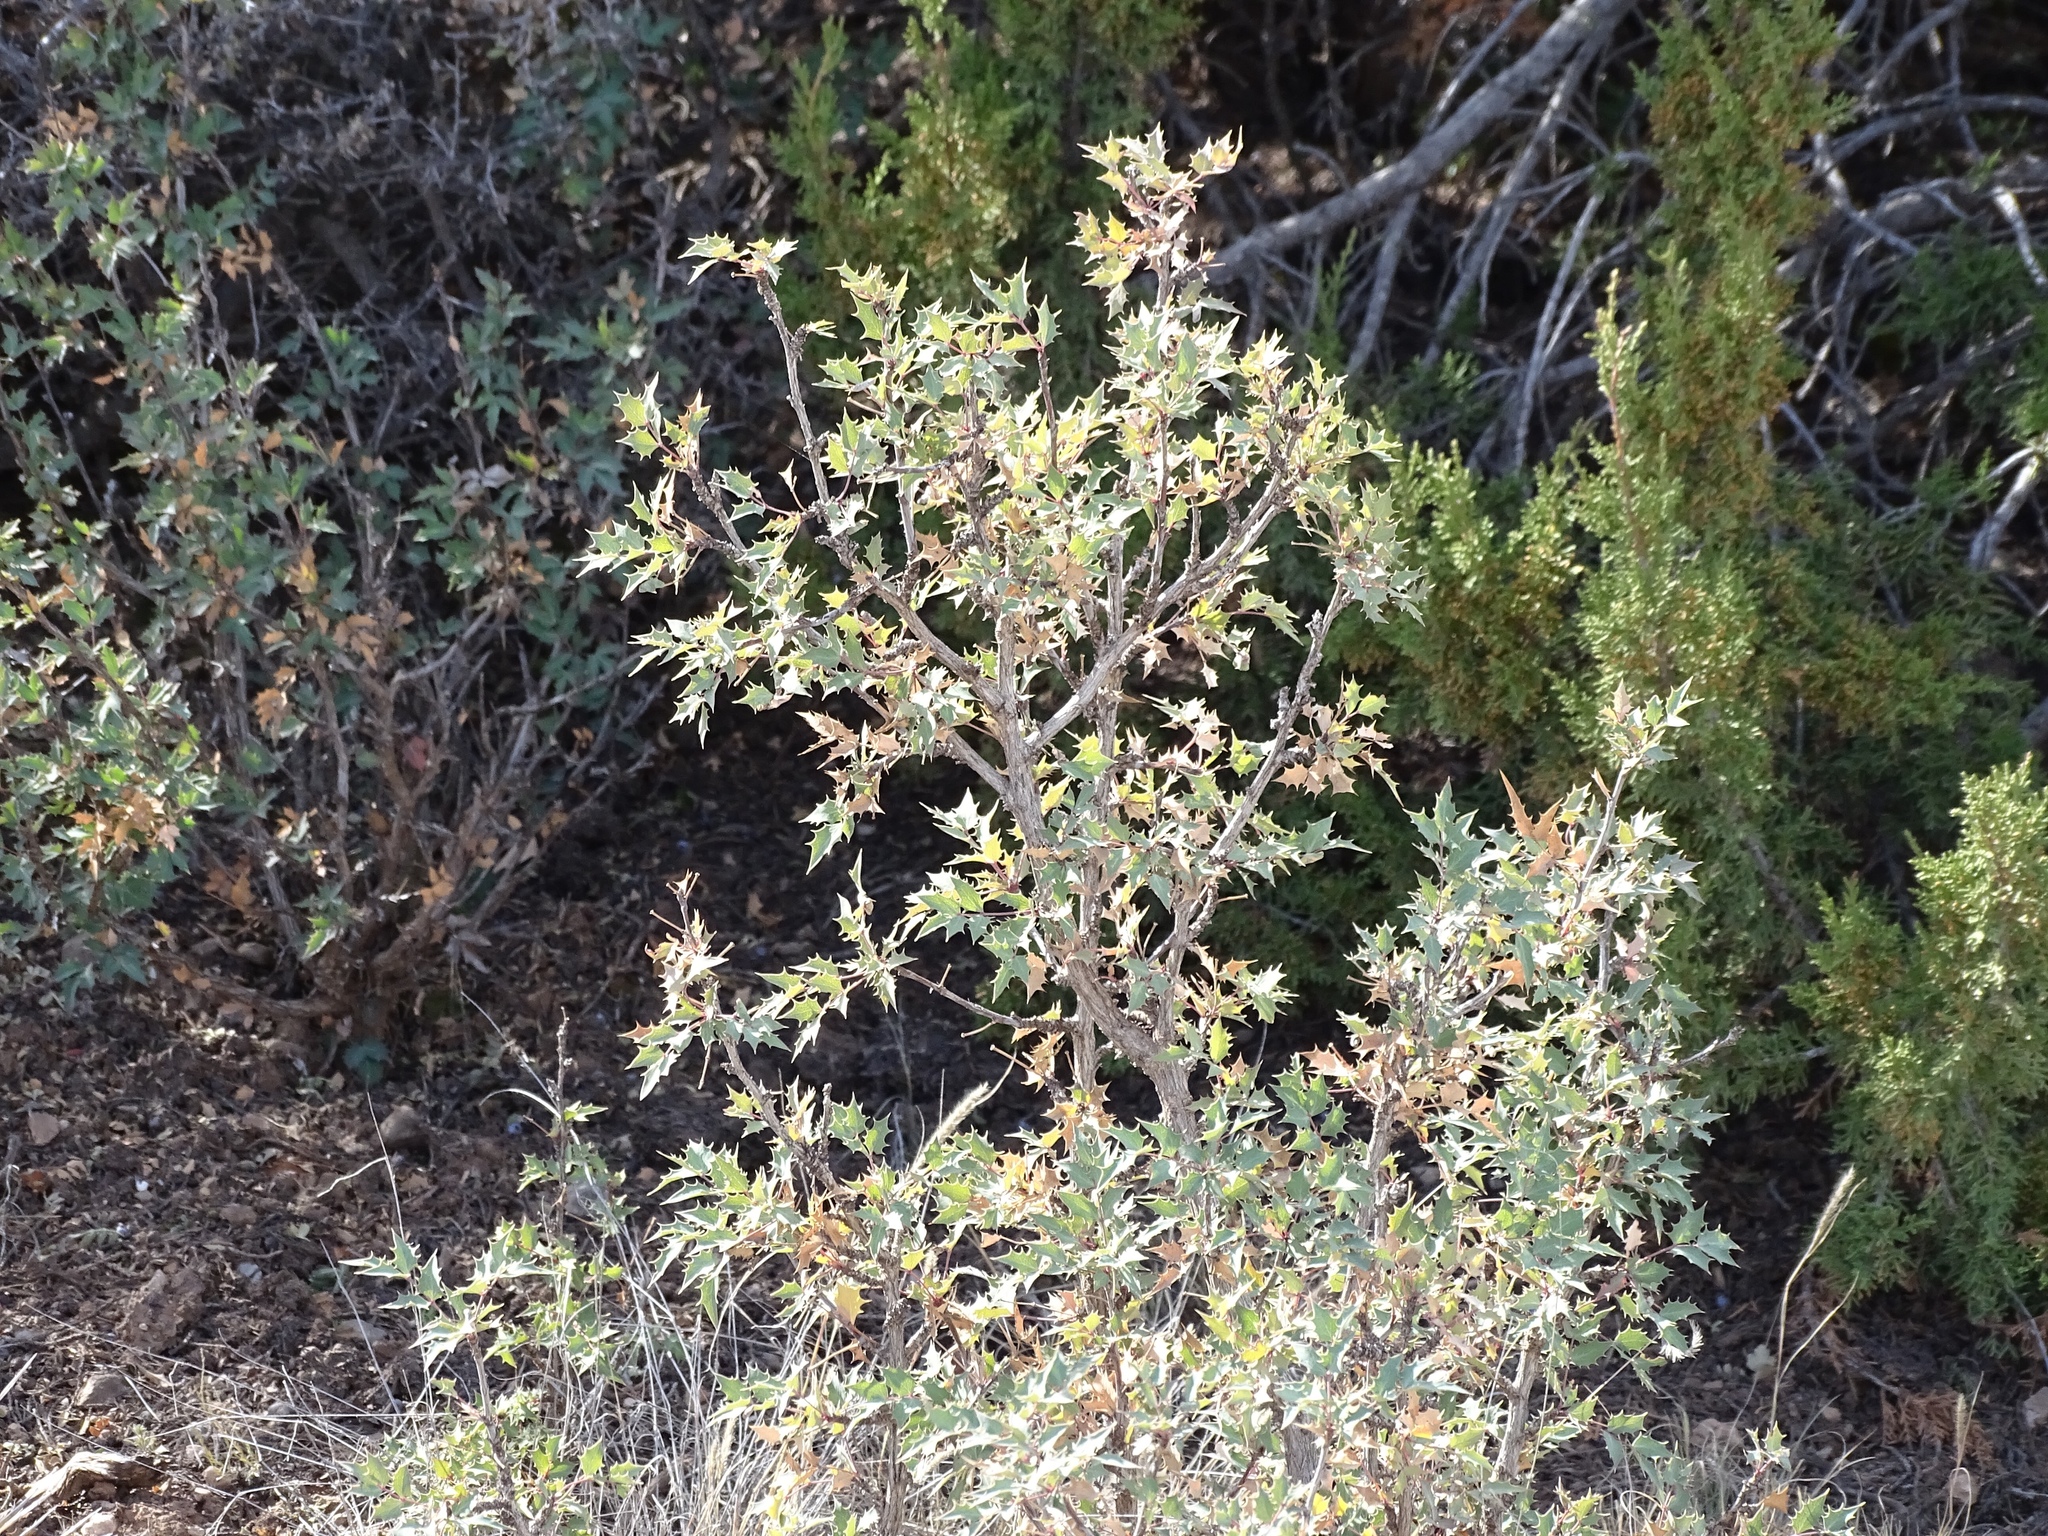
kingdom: Plantae
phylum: Tracheophyta
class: Magnoliopsida
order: Ranunculales
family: Berberidaceae
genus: Alloberberis
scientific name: Alloberberis haematocarpa
